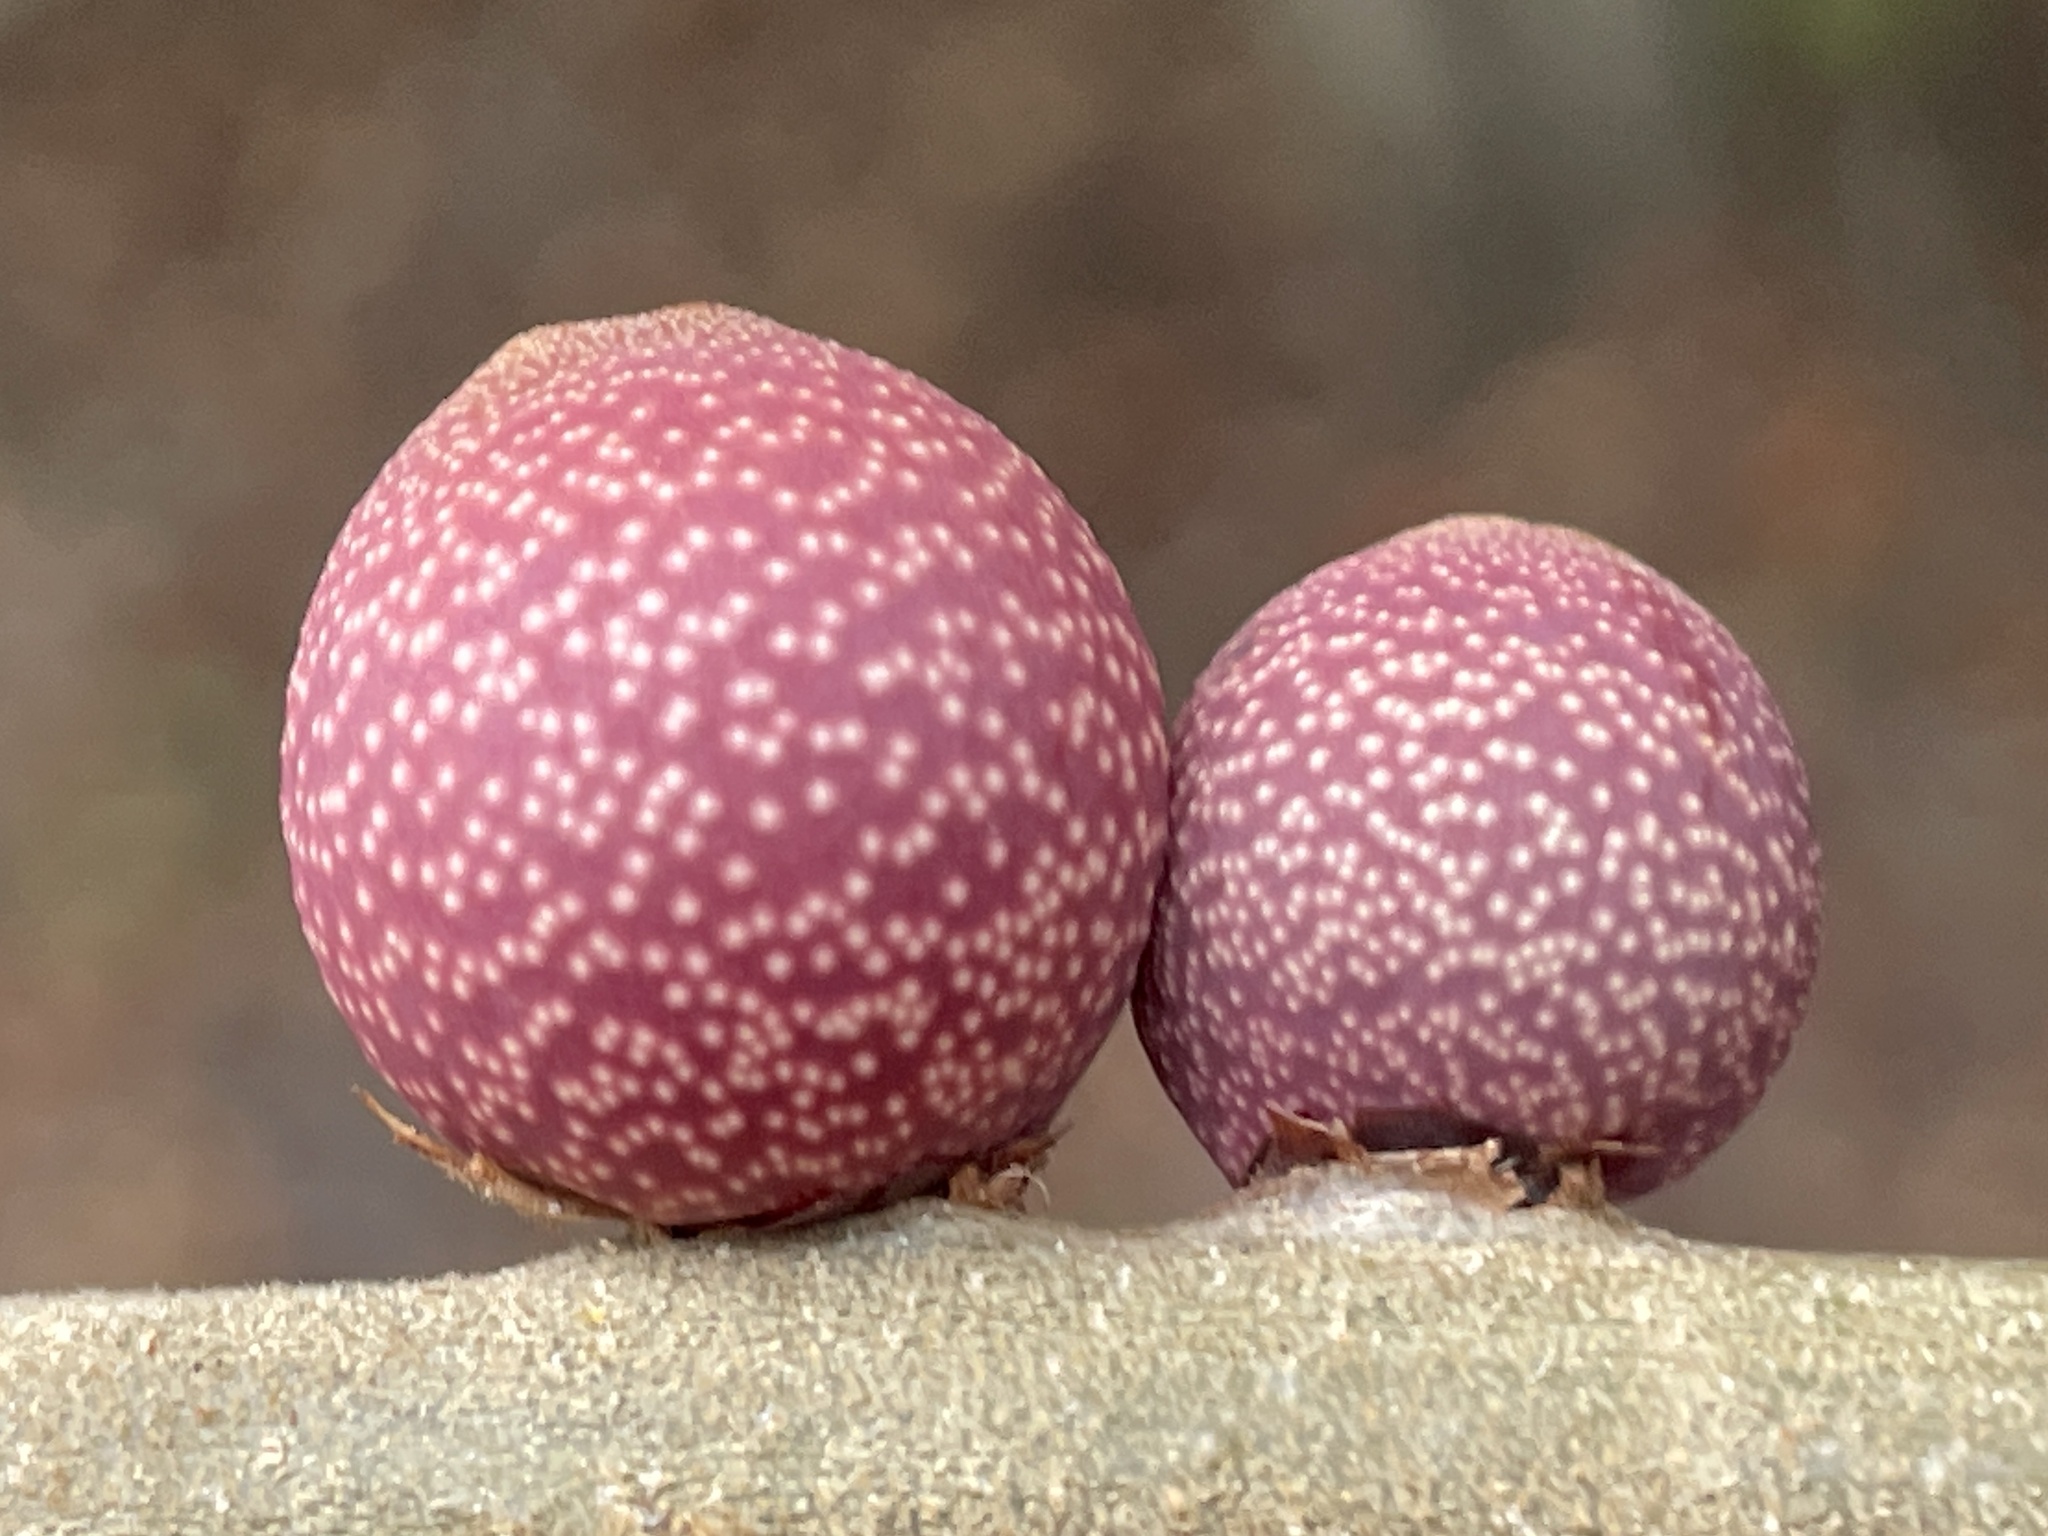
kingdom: Animalia
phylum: Arthropoda
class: Insecta
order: Hymenoptera
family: Cynipidae
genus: Kokkocynips
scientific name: Kokkocynips imbricariae
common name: Banded bullet gall wasp
